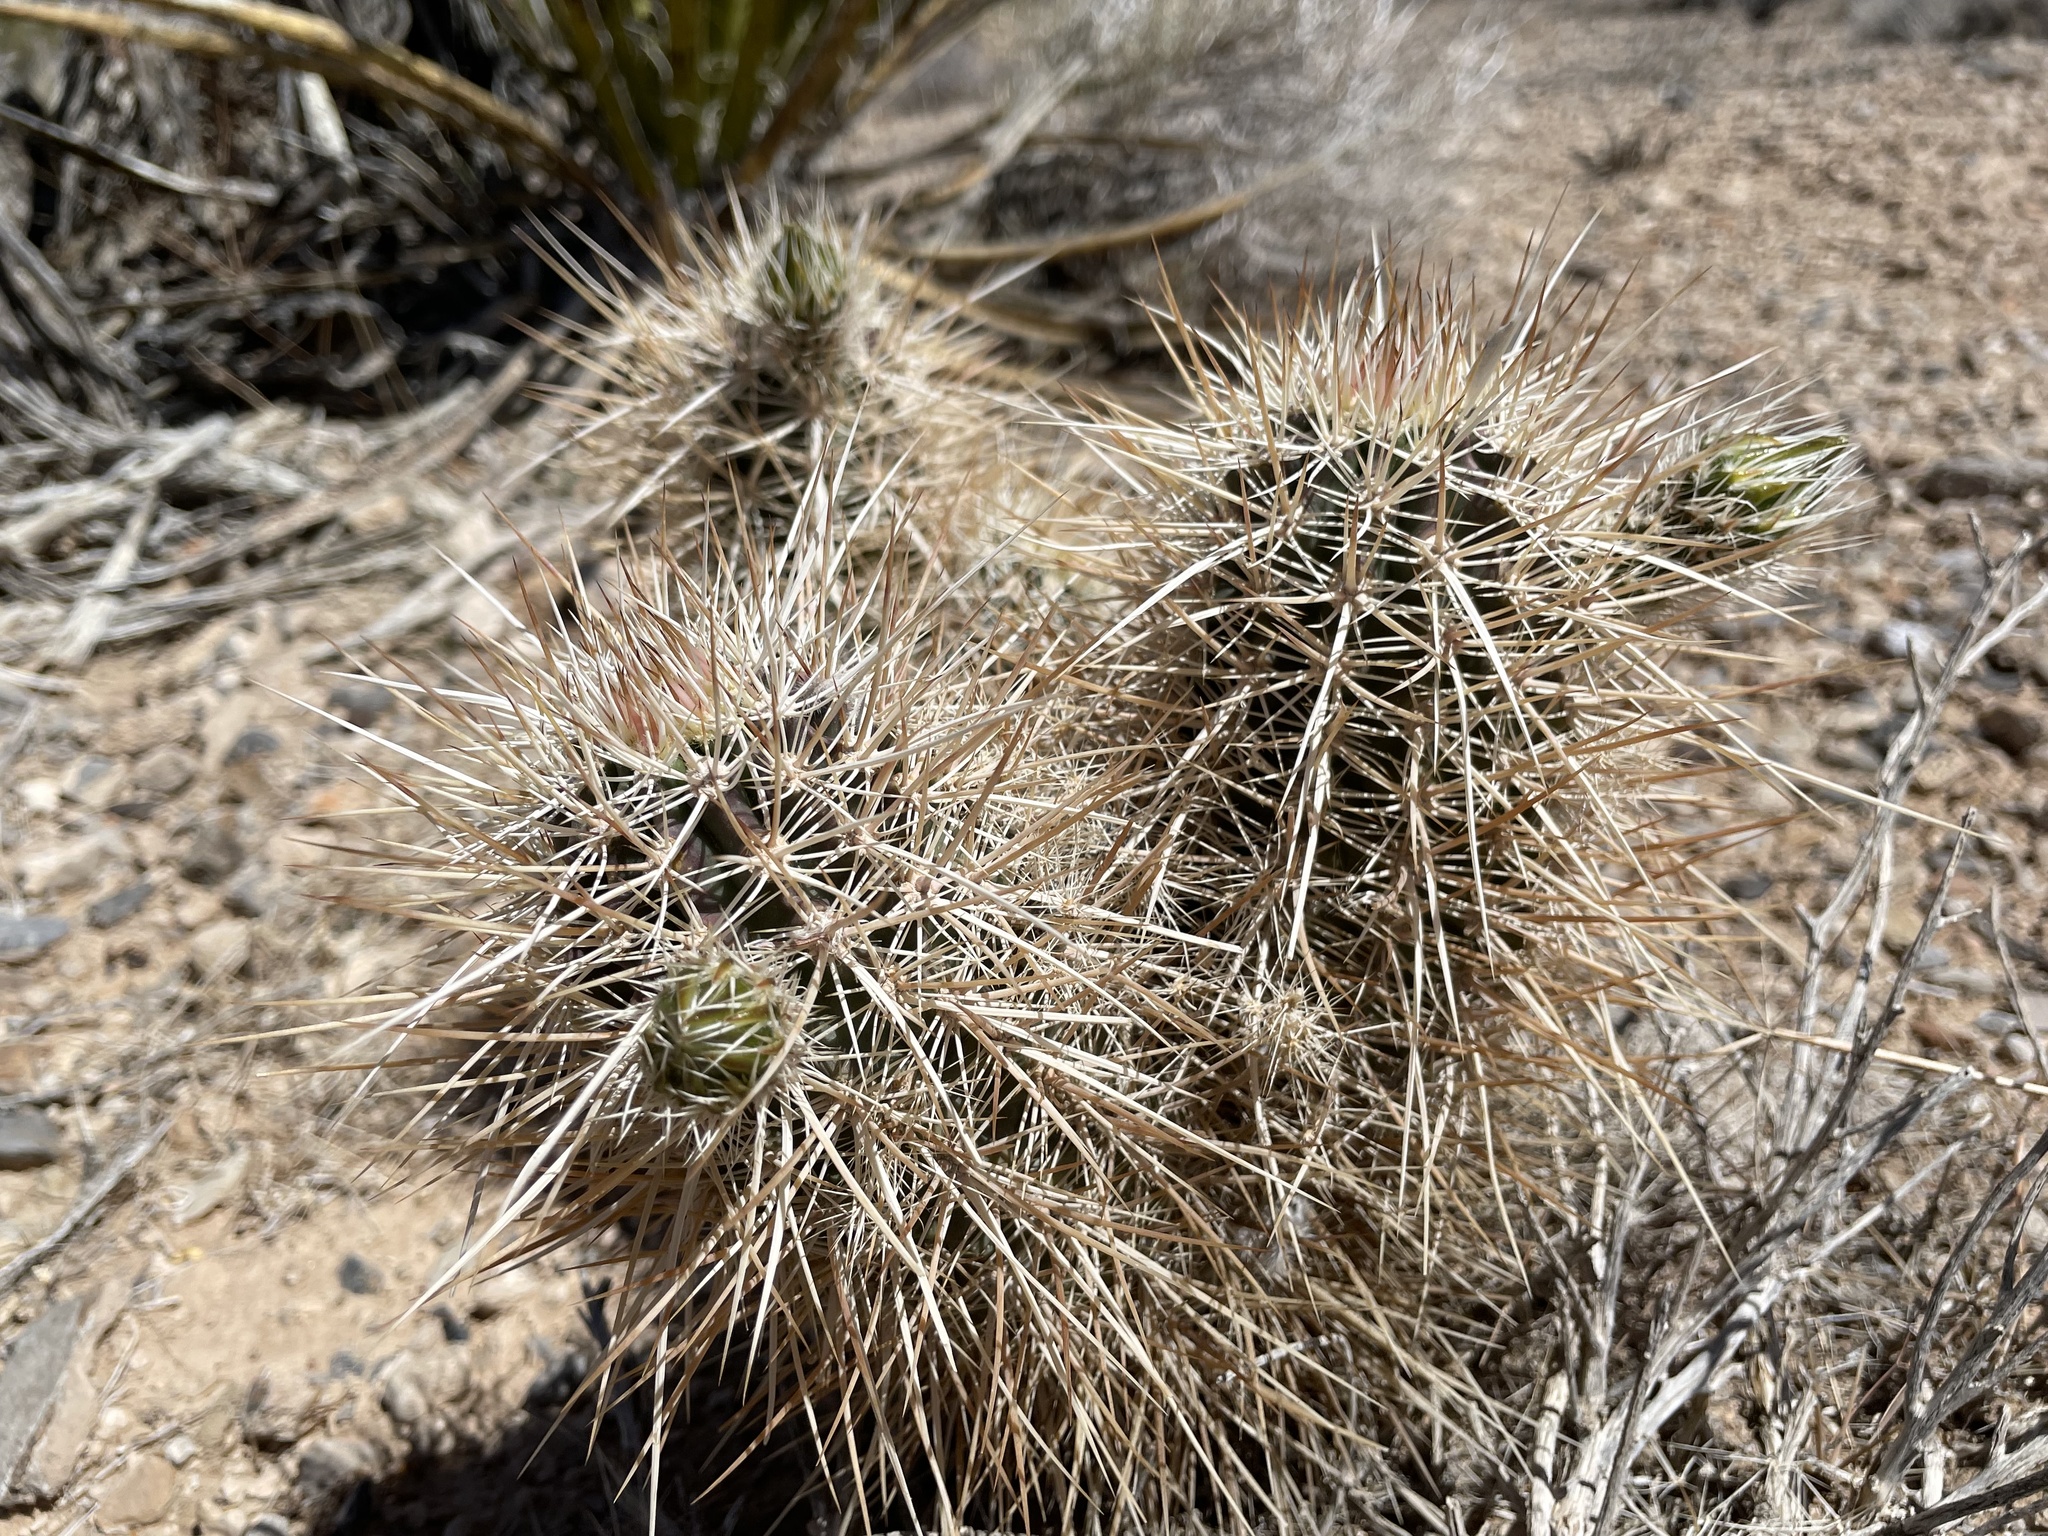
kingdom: Plantae
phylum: Tracheophyta
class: Magnoliopsida
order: Caryophyllales
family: Cactaceae
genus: Echinocereus
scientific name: Echinocereus engelmannii
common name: Engelmann's hedgehog cactus
